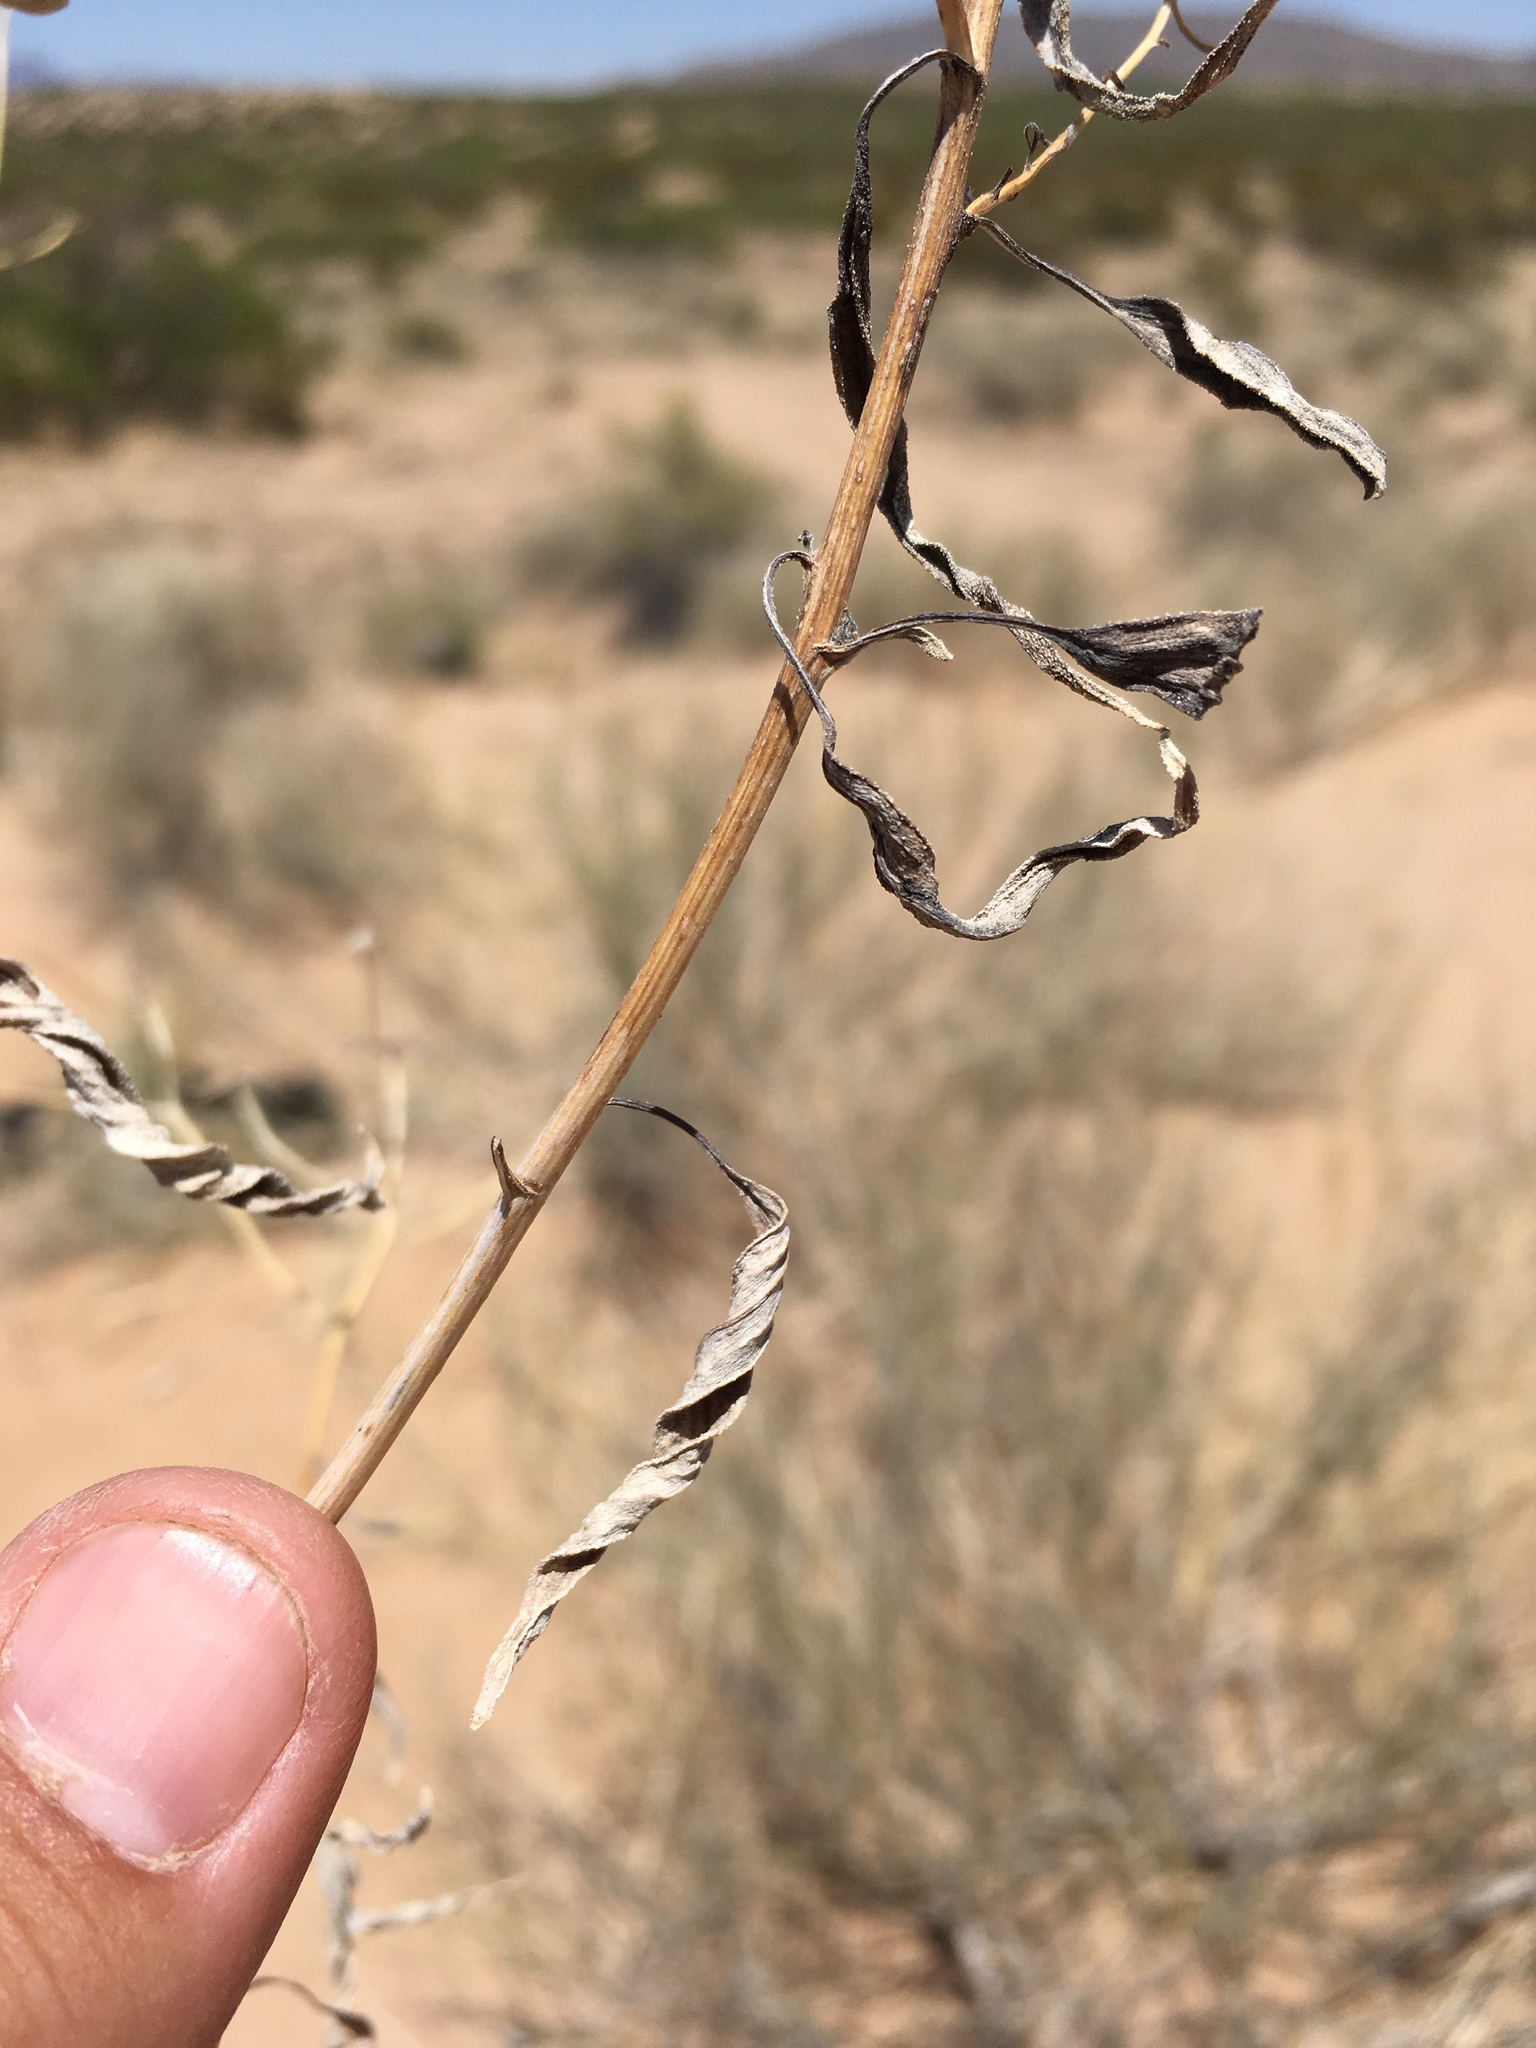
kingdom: Plantae
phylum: Tracheophyta
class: Magnoliopsida
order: Asterales
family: Asteraceae
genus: Palafoxia
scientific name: Palafoxia sphacelata
